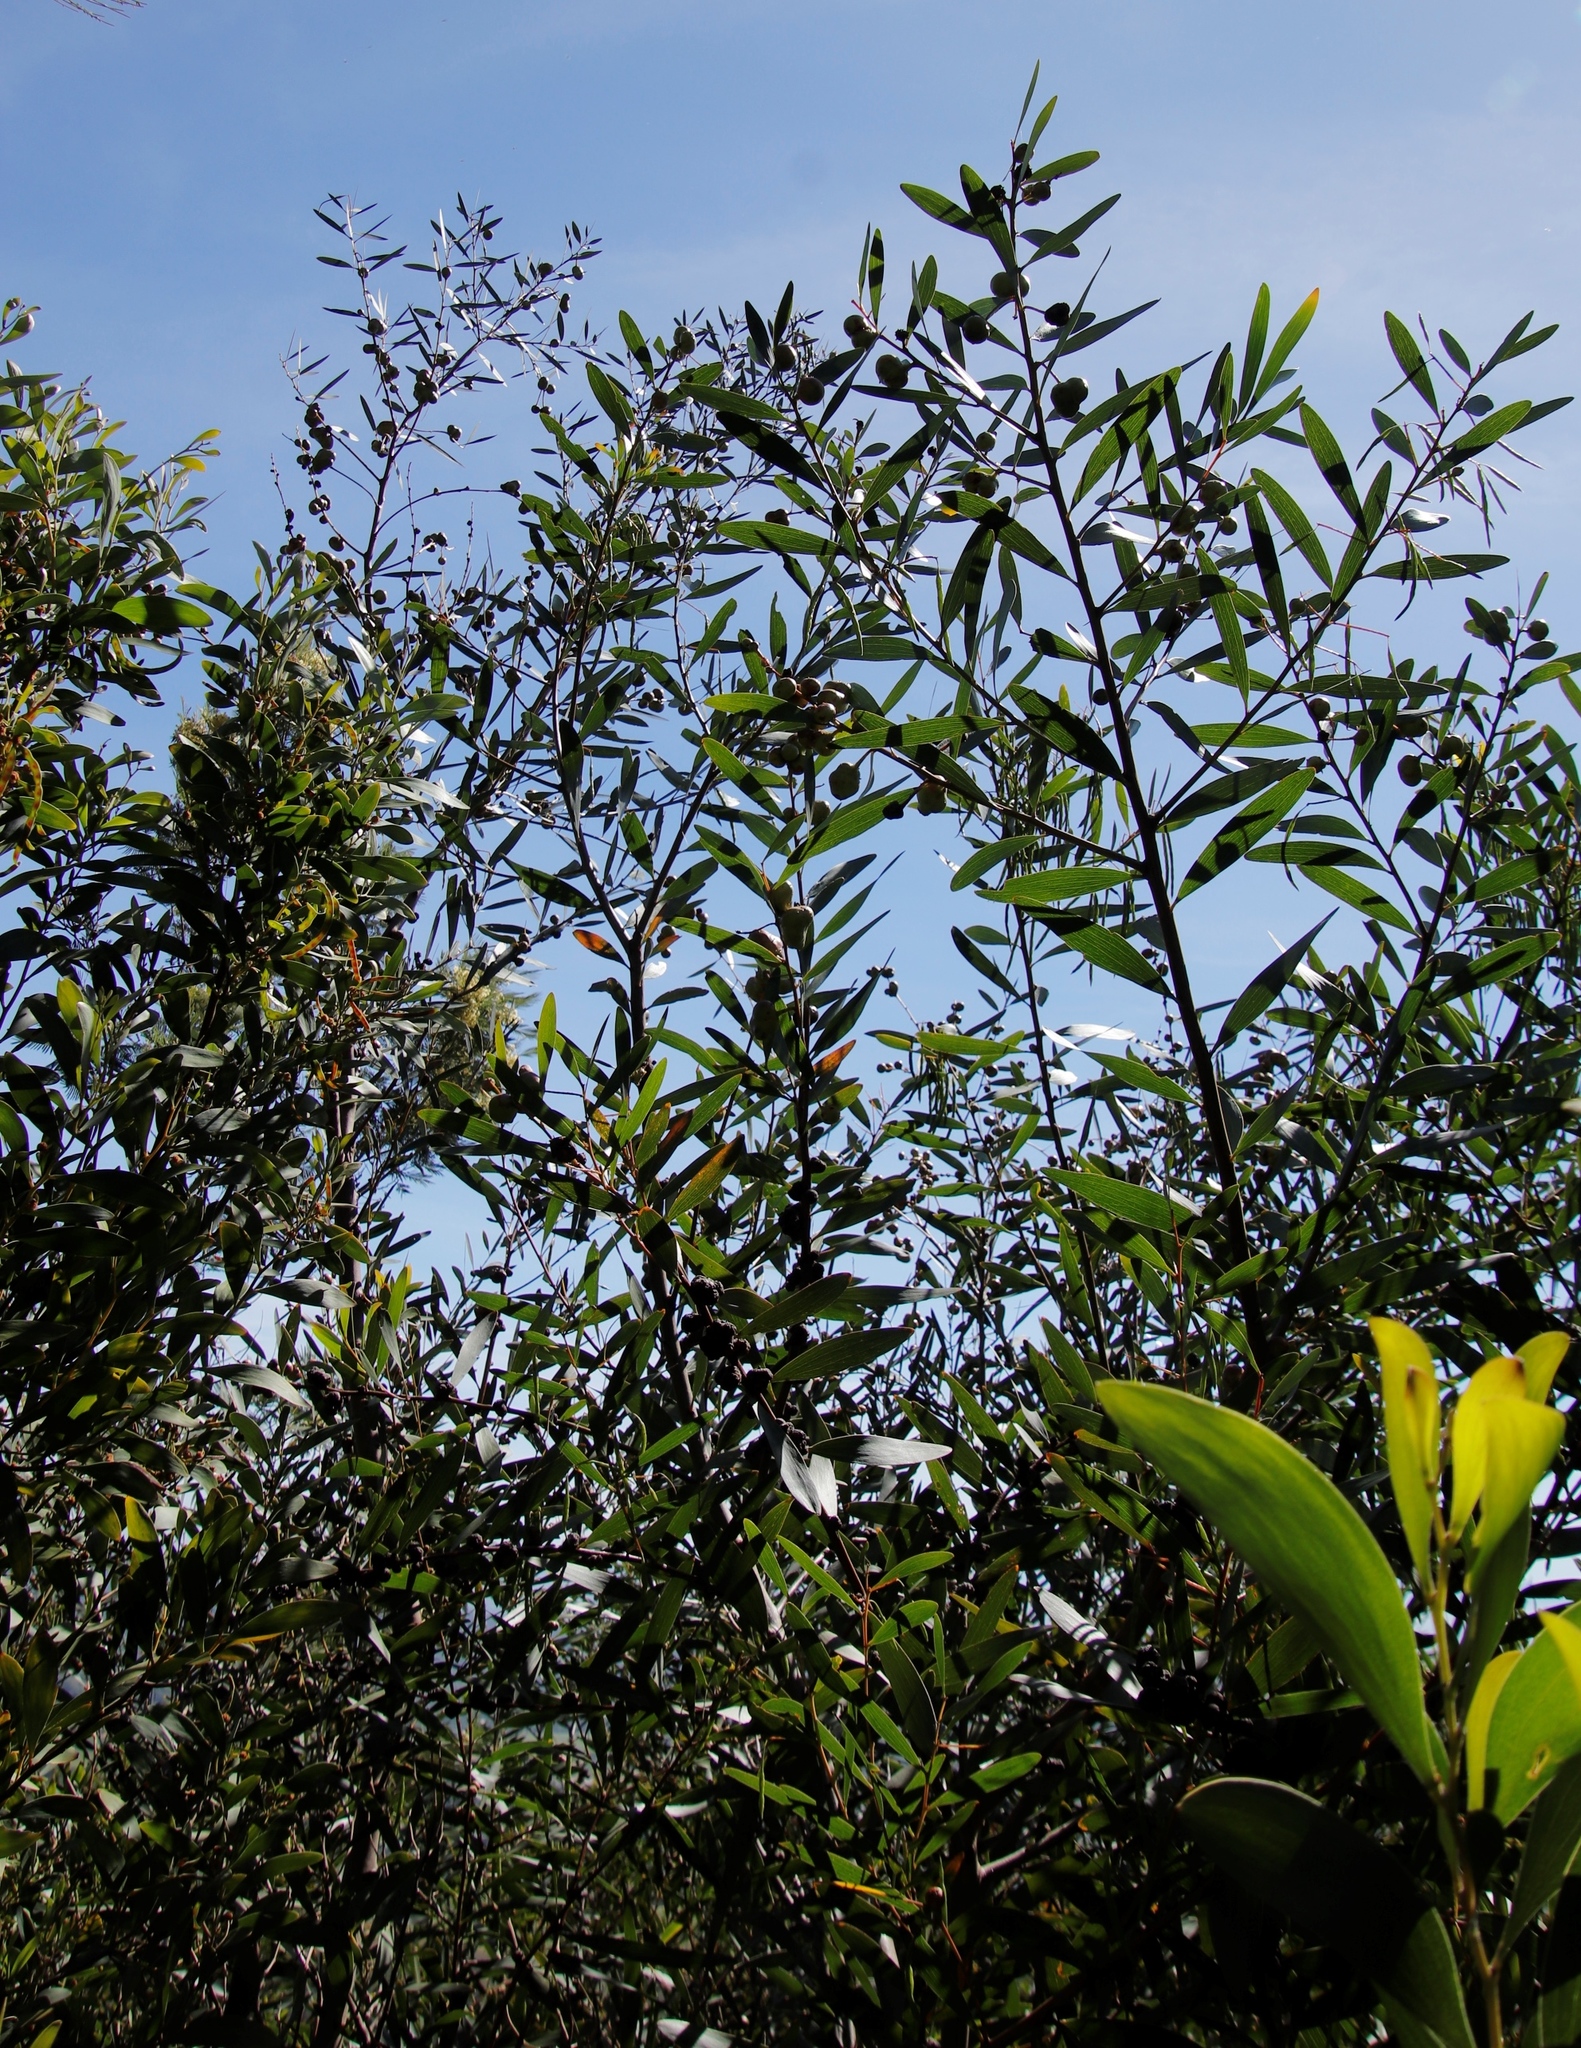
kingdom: Plantae
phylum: Tracheophyta
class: Magnoliopsida
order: Fabales
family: Fabaceae
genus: Acacia
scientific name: Acacia longifolia
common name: Sydney golden wattle
